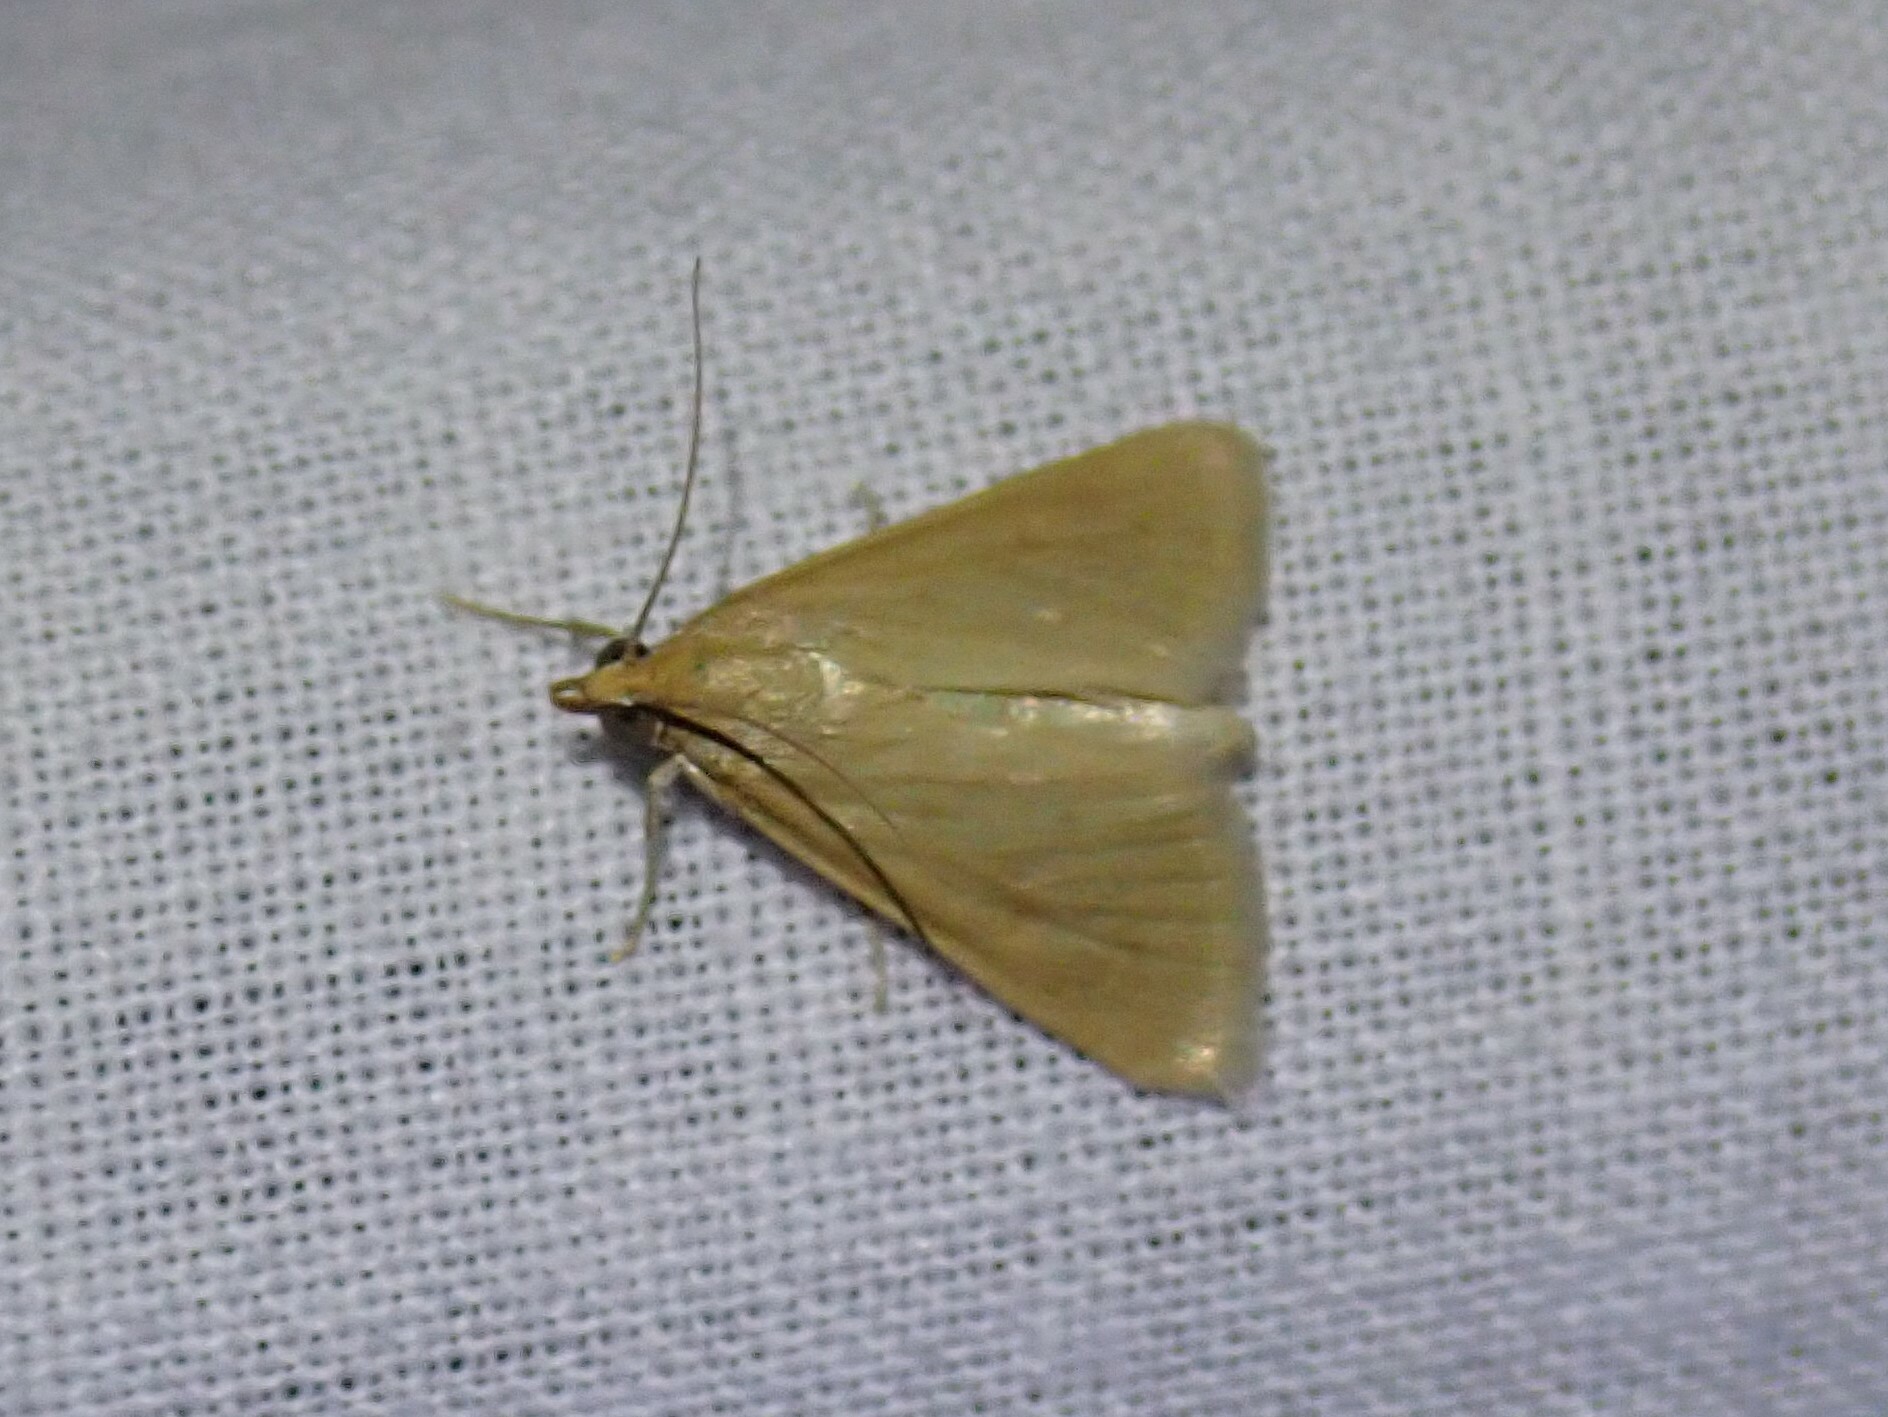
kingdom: Animalia
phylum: Arthropoda
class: Insecta
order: Lepidoptera
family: Crambidae
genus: Achyra
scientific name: Achyra nudalis
